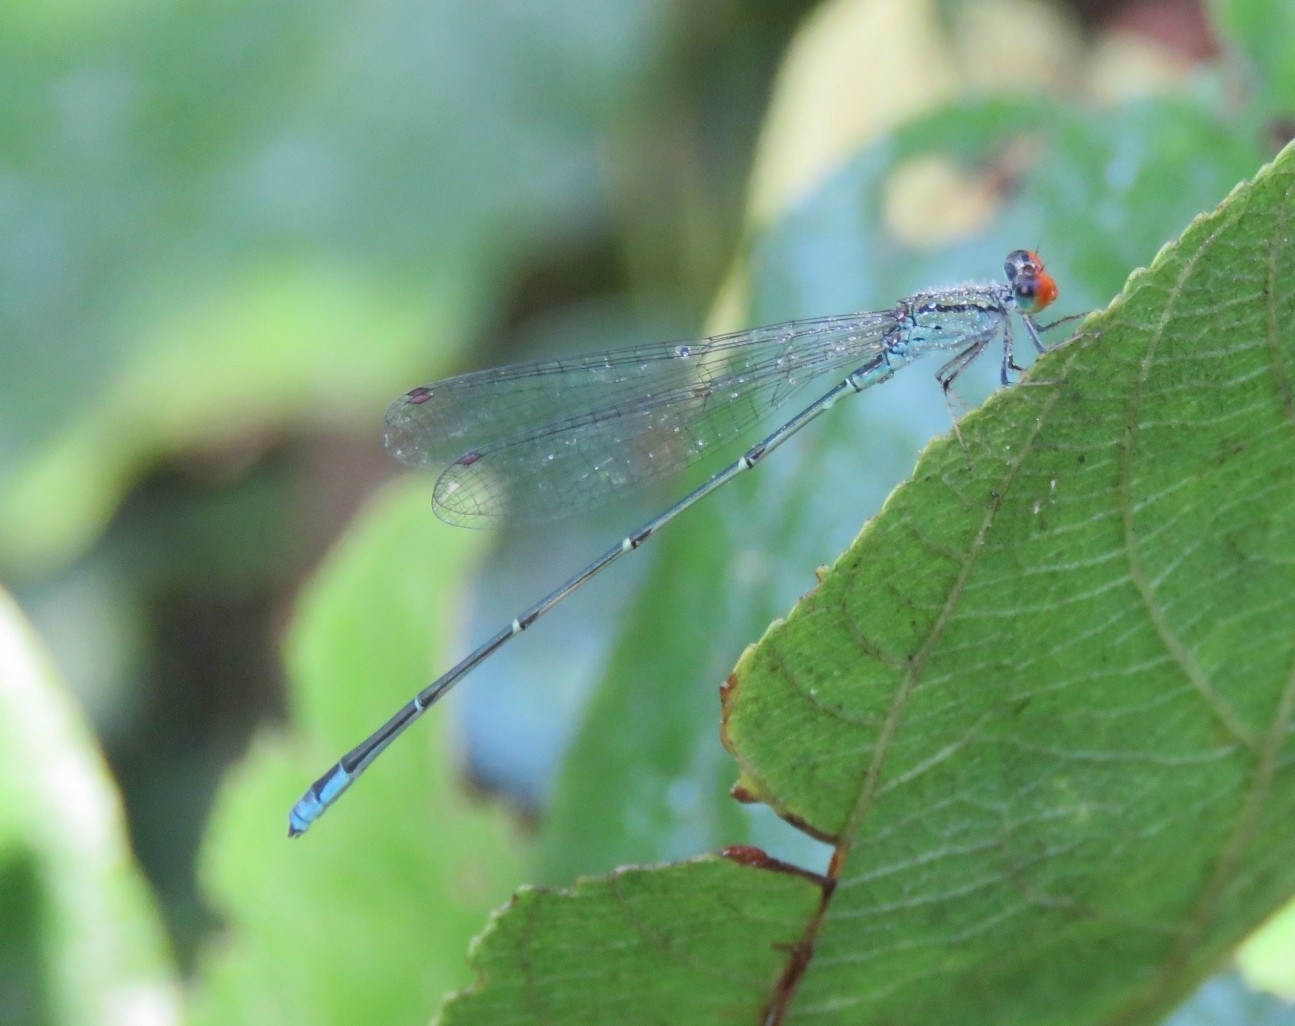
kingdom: Animalia
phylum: Arthropoda
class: Insecta
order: Odonata
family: Coenagrionidae
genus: Pseudagrion
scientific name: Pseudagrion rubriceps
